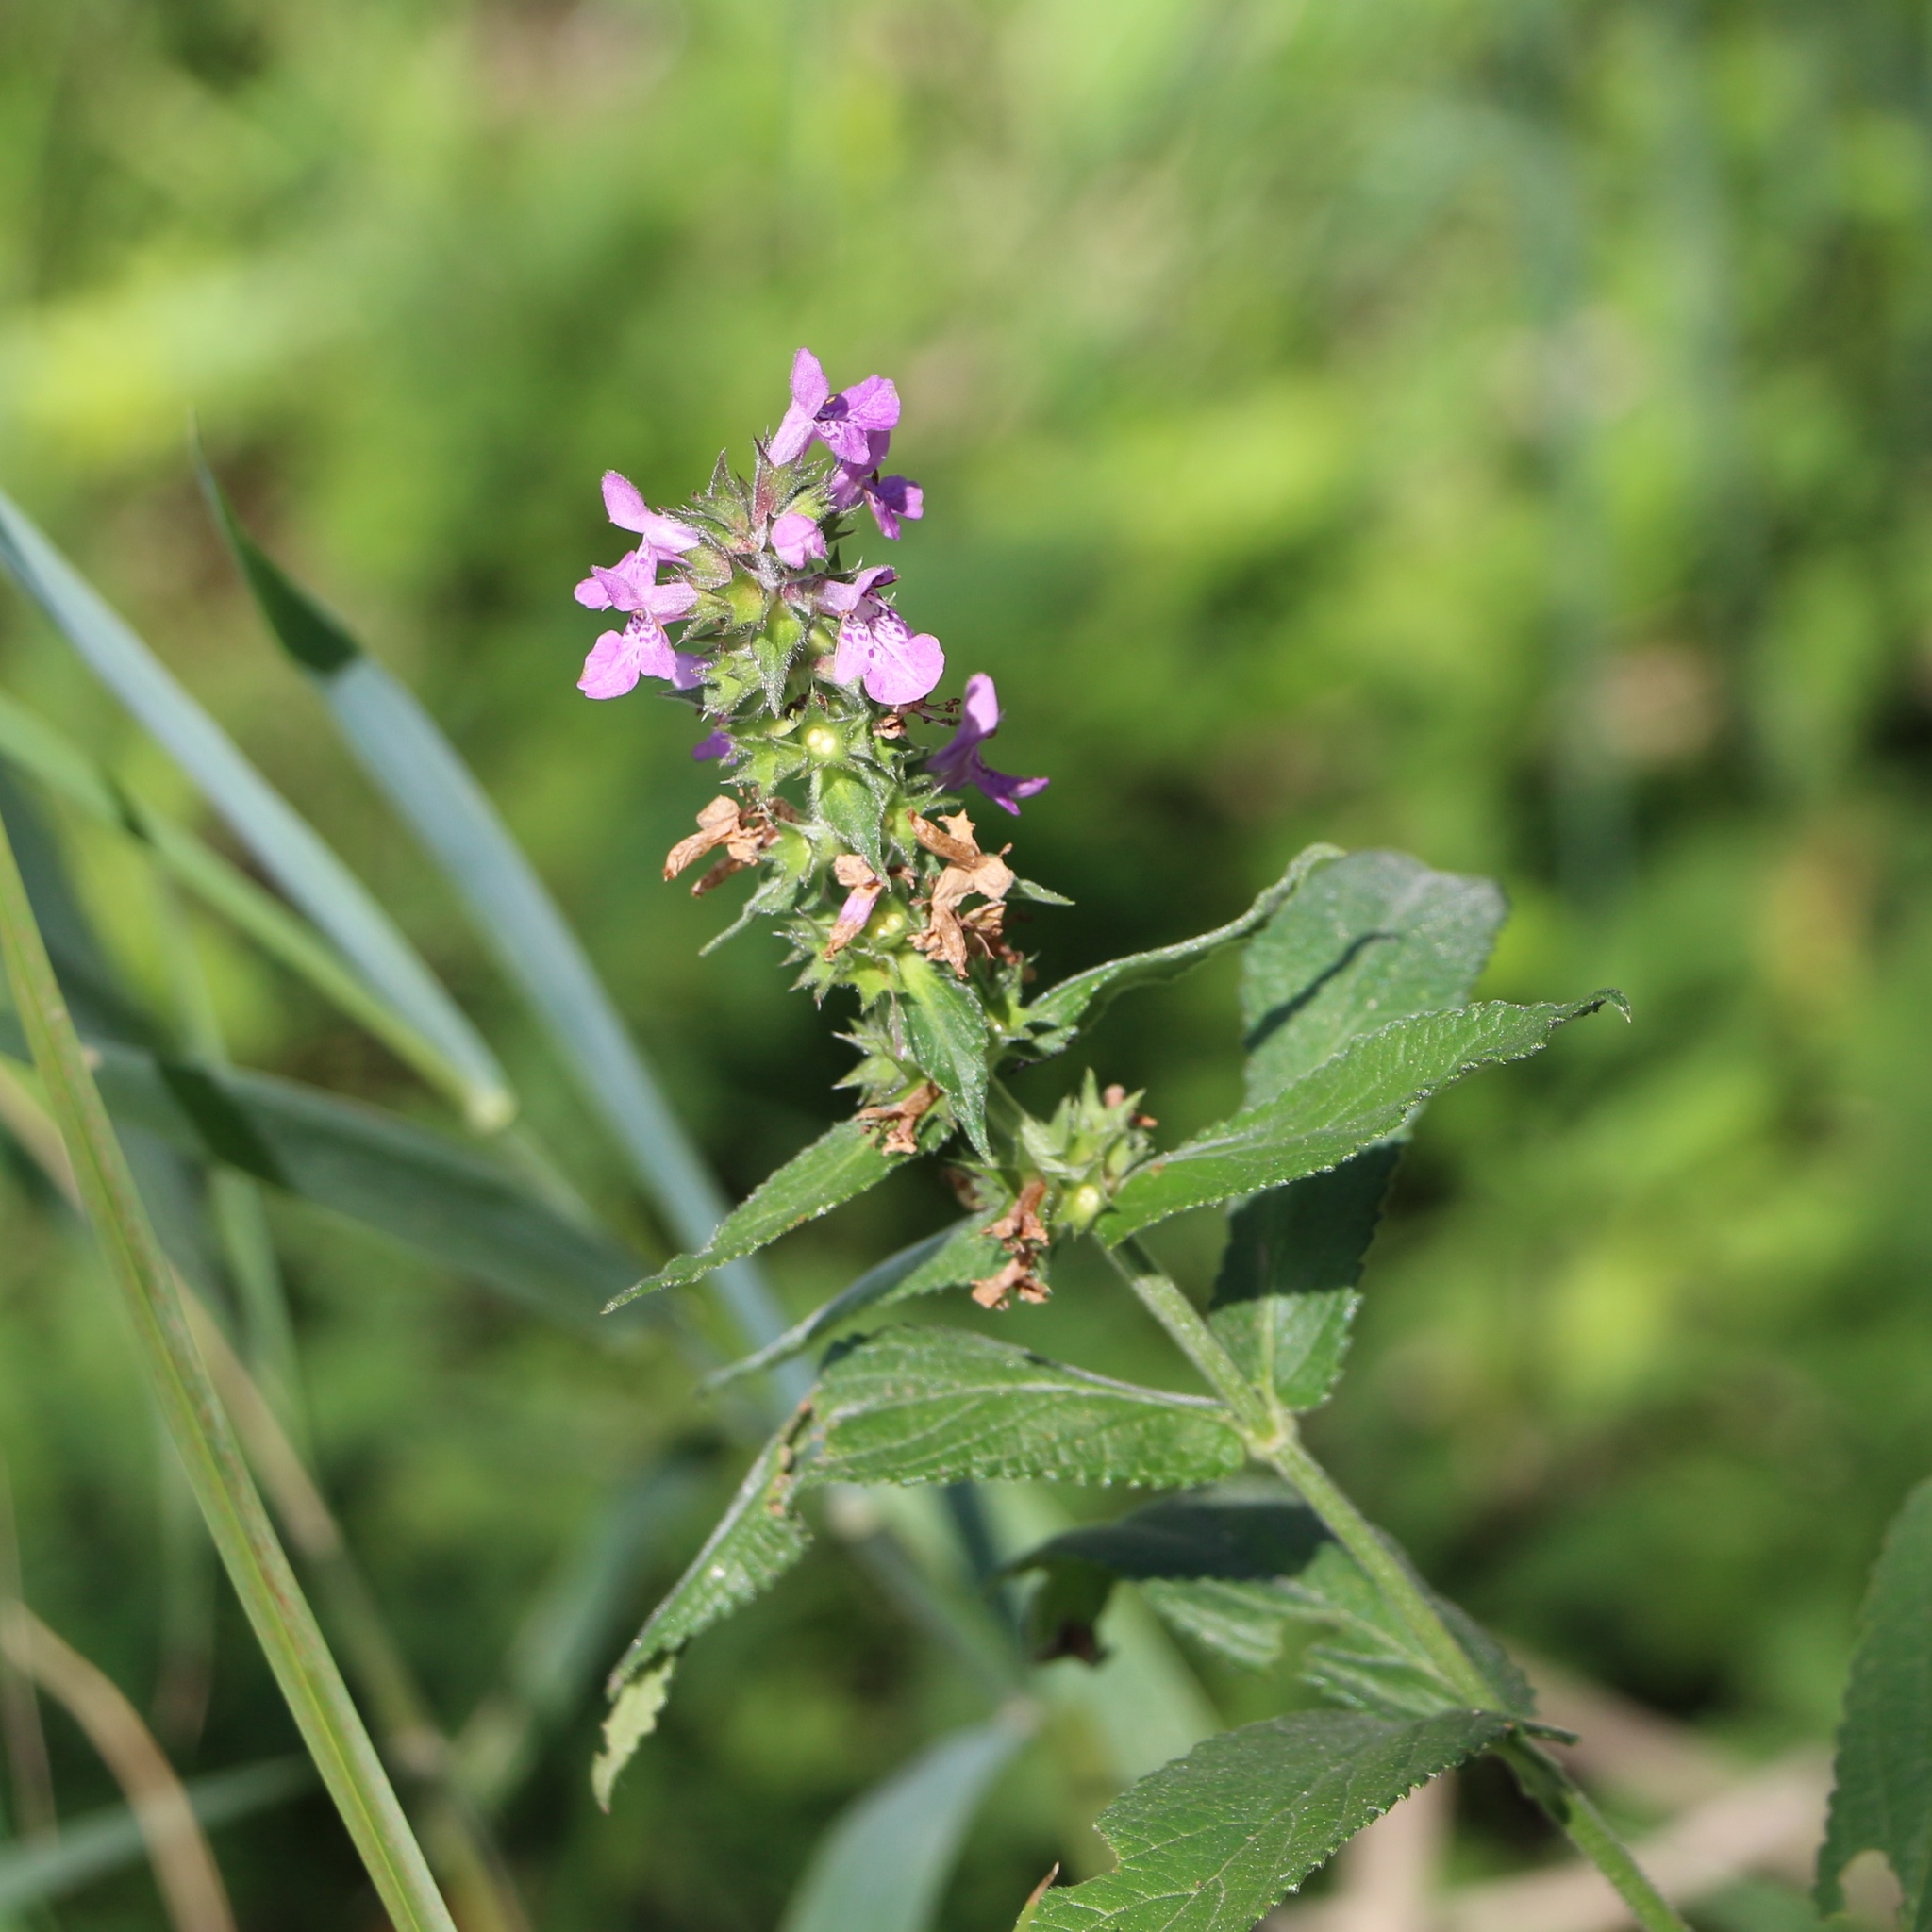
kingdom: Plantae
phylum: Tracheophyta
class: Magnoliopsida
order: Lamiales
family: Lamiaceae
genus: Stachys
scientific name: Stachys palustris
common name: Marsh woundwort
